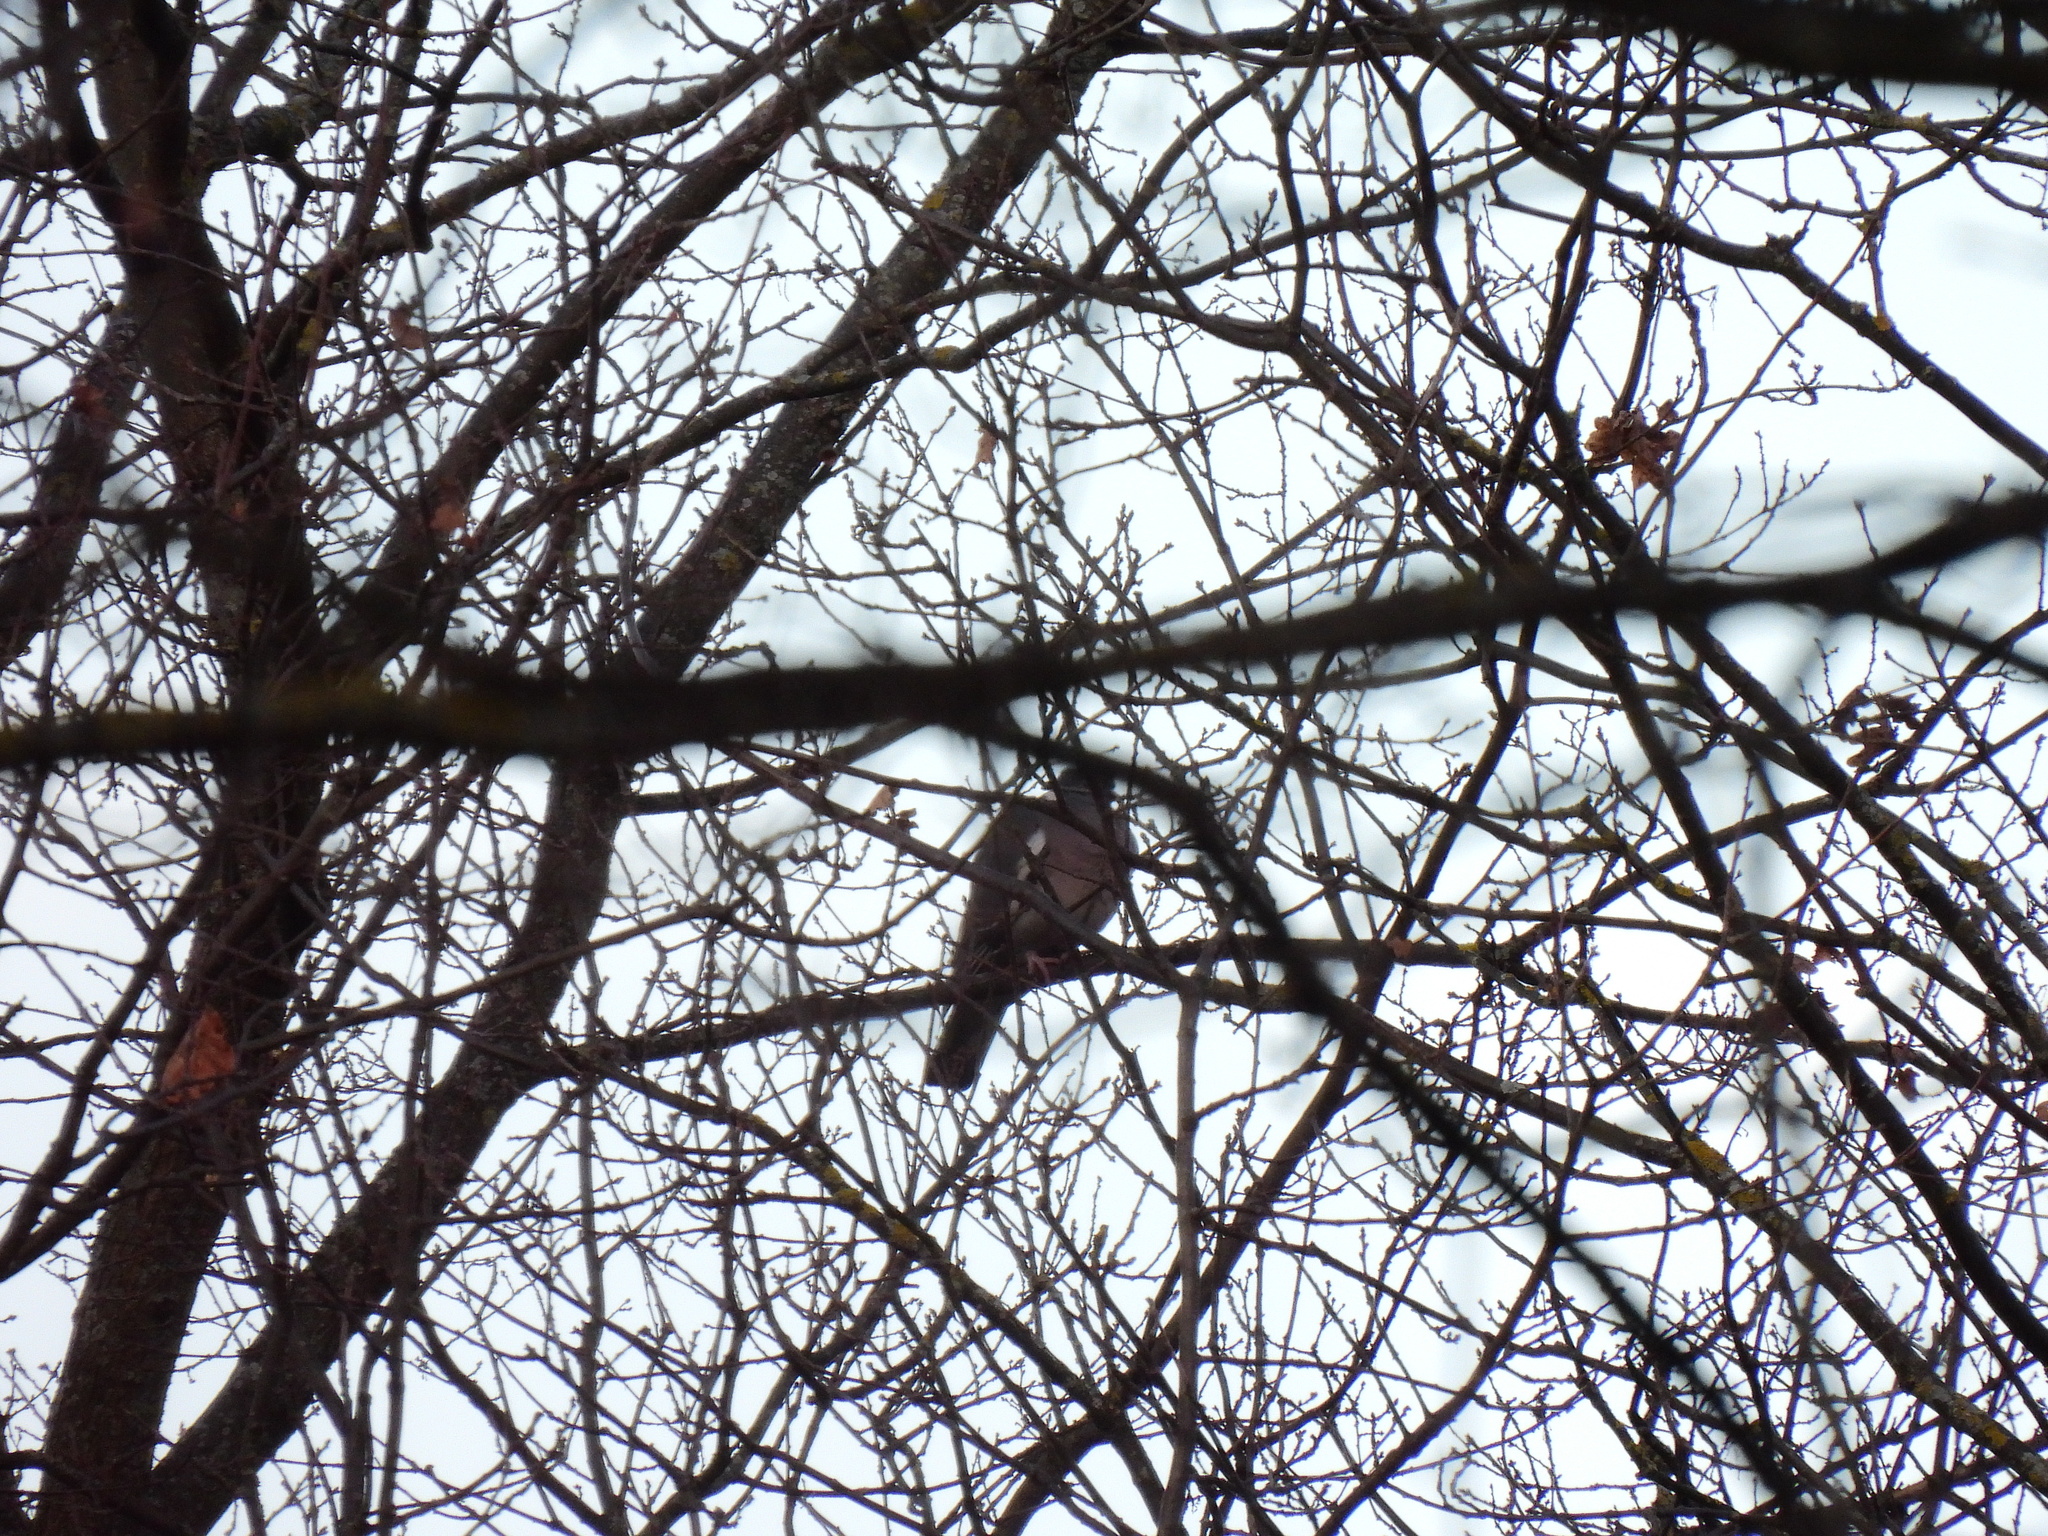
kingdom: Animalia
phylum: Chordata
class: Aves
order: Columbiformes
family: Columbidae
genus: Columba
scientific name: Columba palumbus
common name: Common wood pigeon
